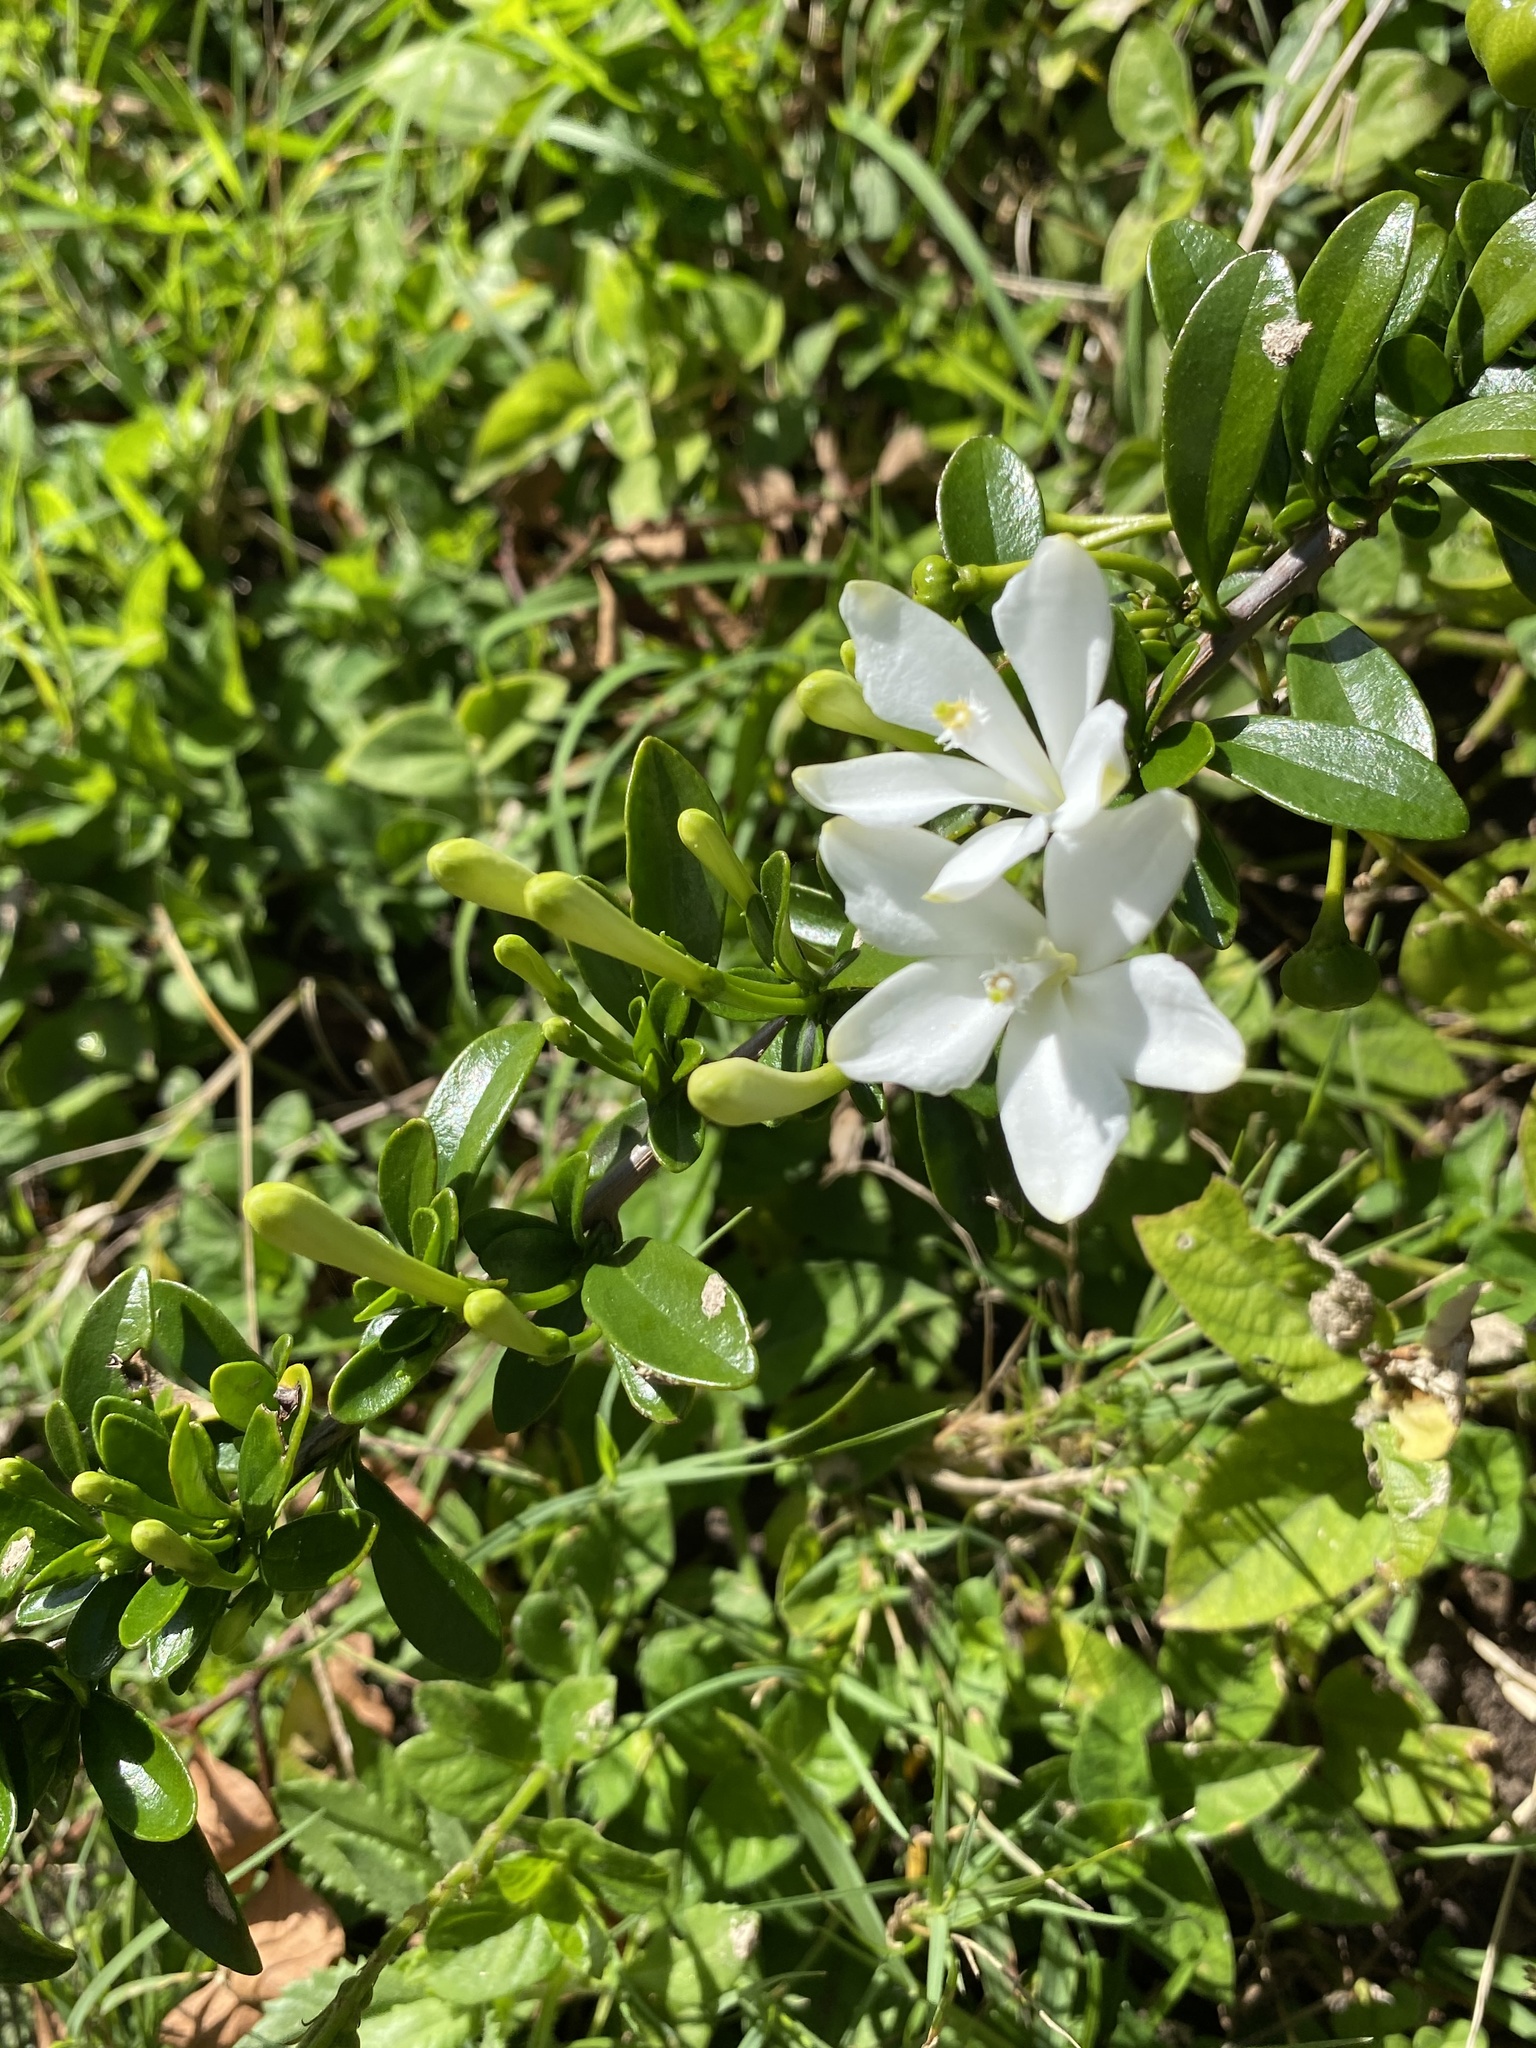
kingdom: Plantae
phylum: Tracheophyta
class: Magnoliopsida
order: Sapindales
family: Meliaceae
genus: Turraea
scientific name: Turraea obtusifolia
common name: Small honeysuckle tree
